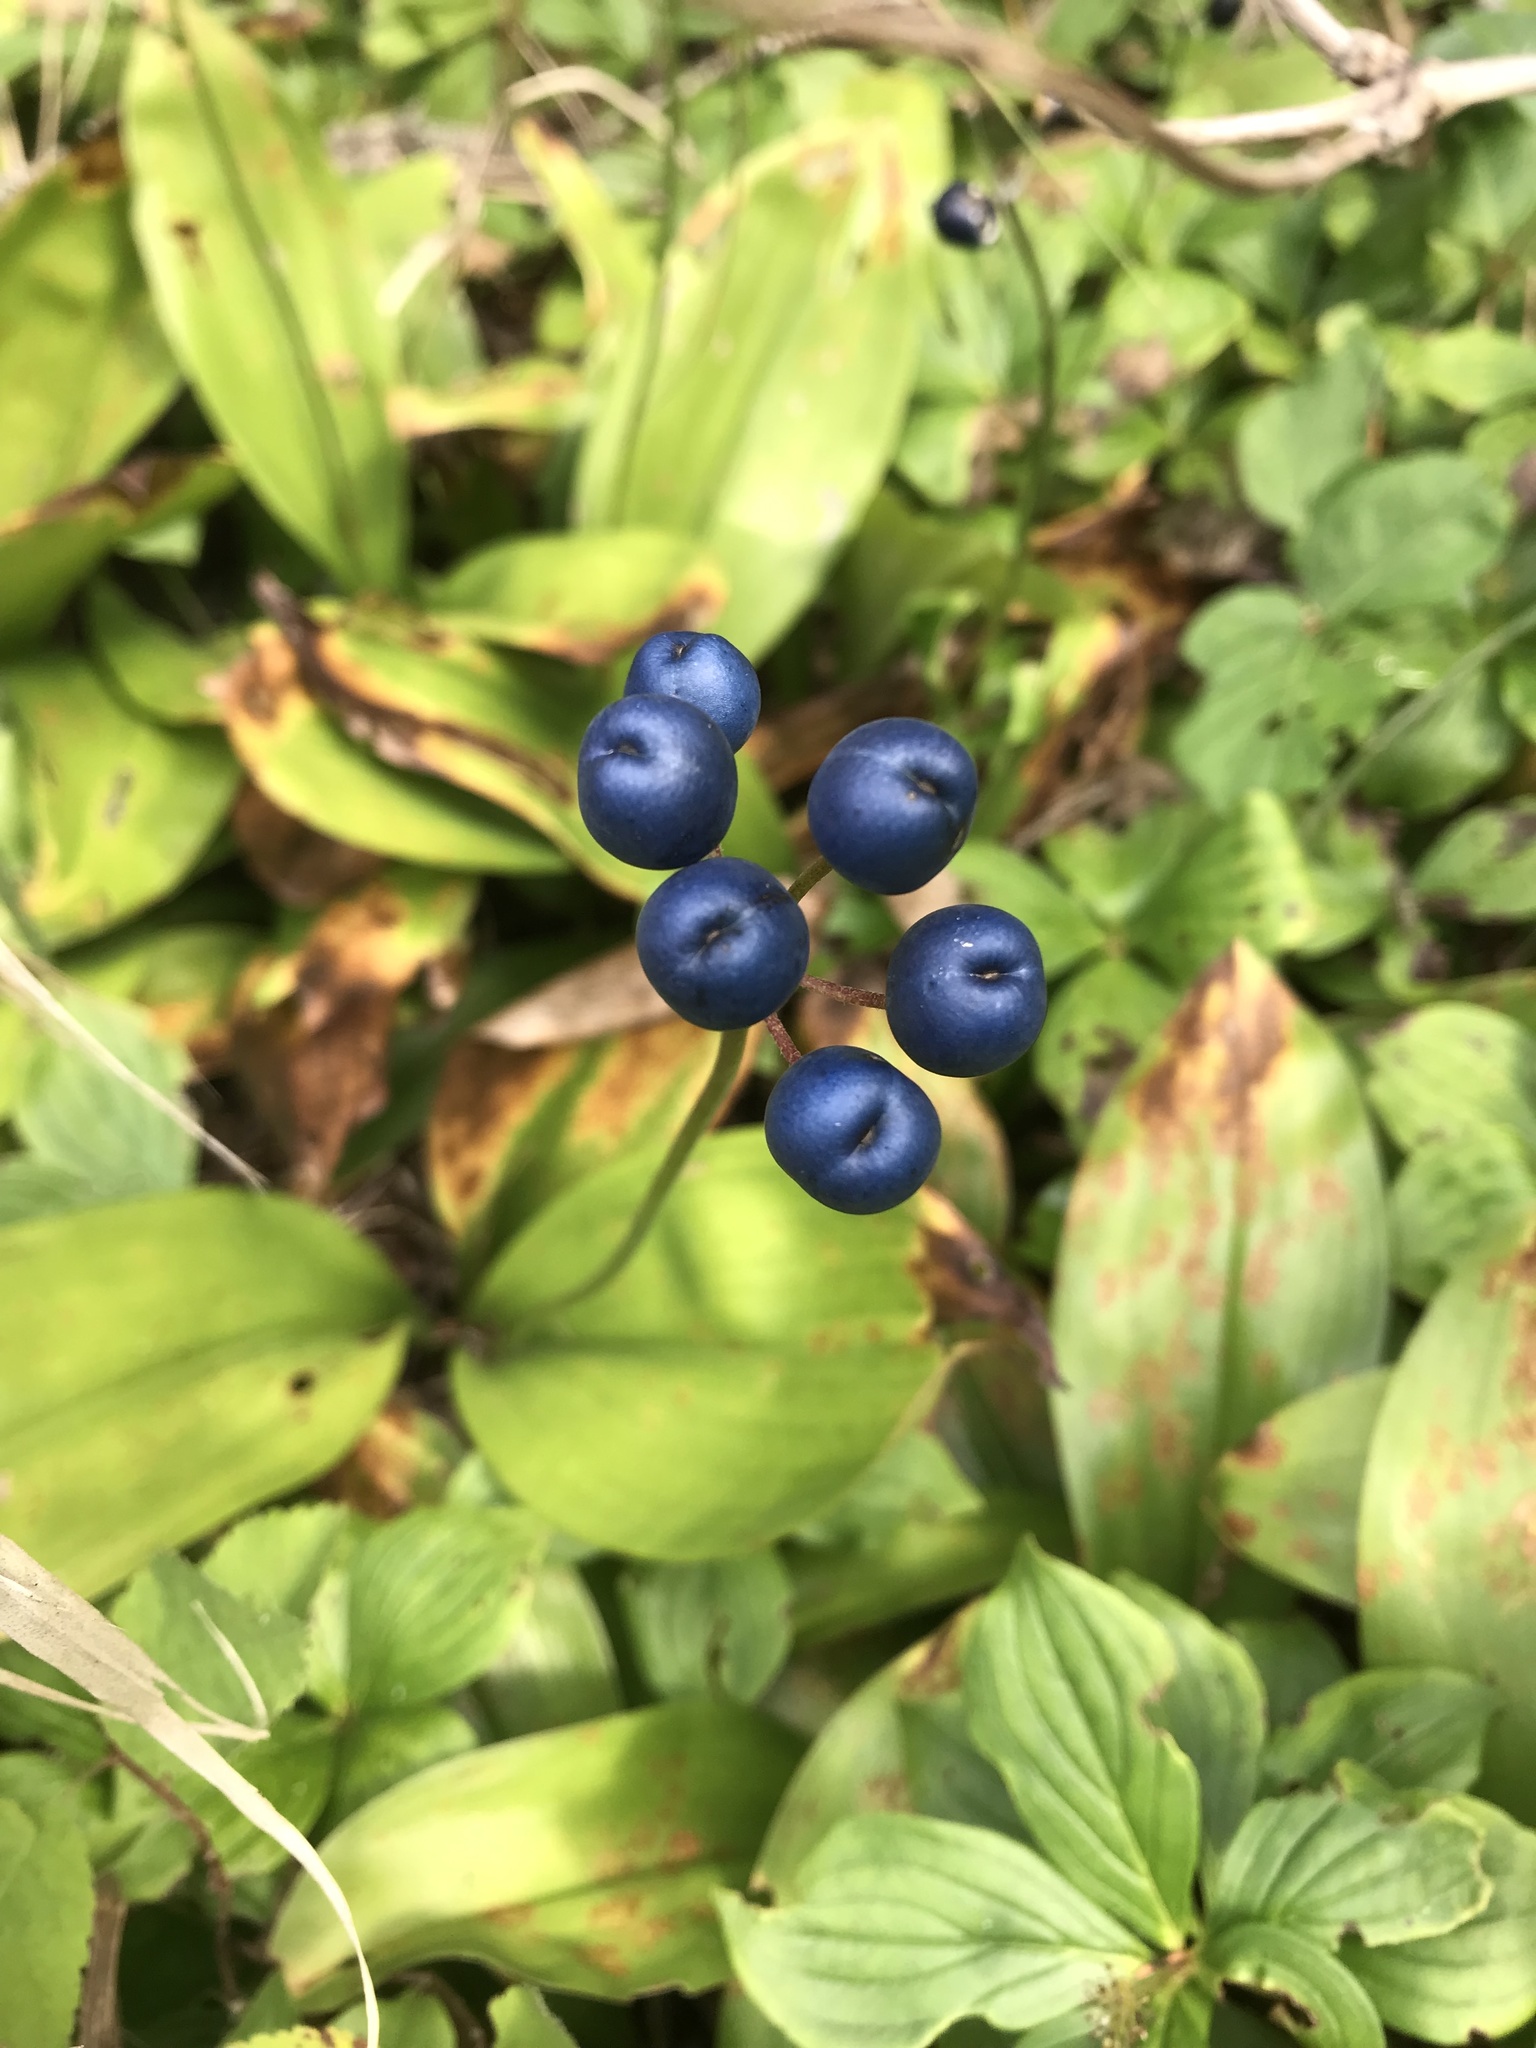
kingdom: Plantae
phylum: Tracheophyta
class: Liliopsida
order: Liliales
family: Liliaceae
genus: Clintonia
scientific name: Clintonia borealis
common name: Yellow clintonia
